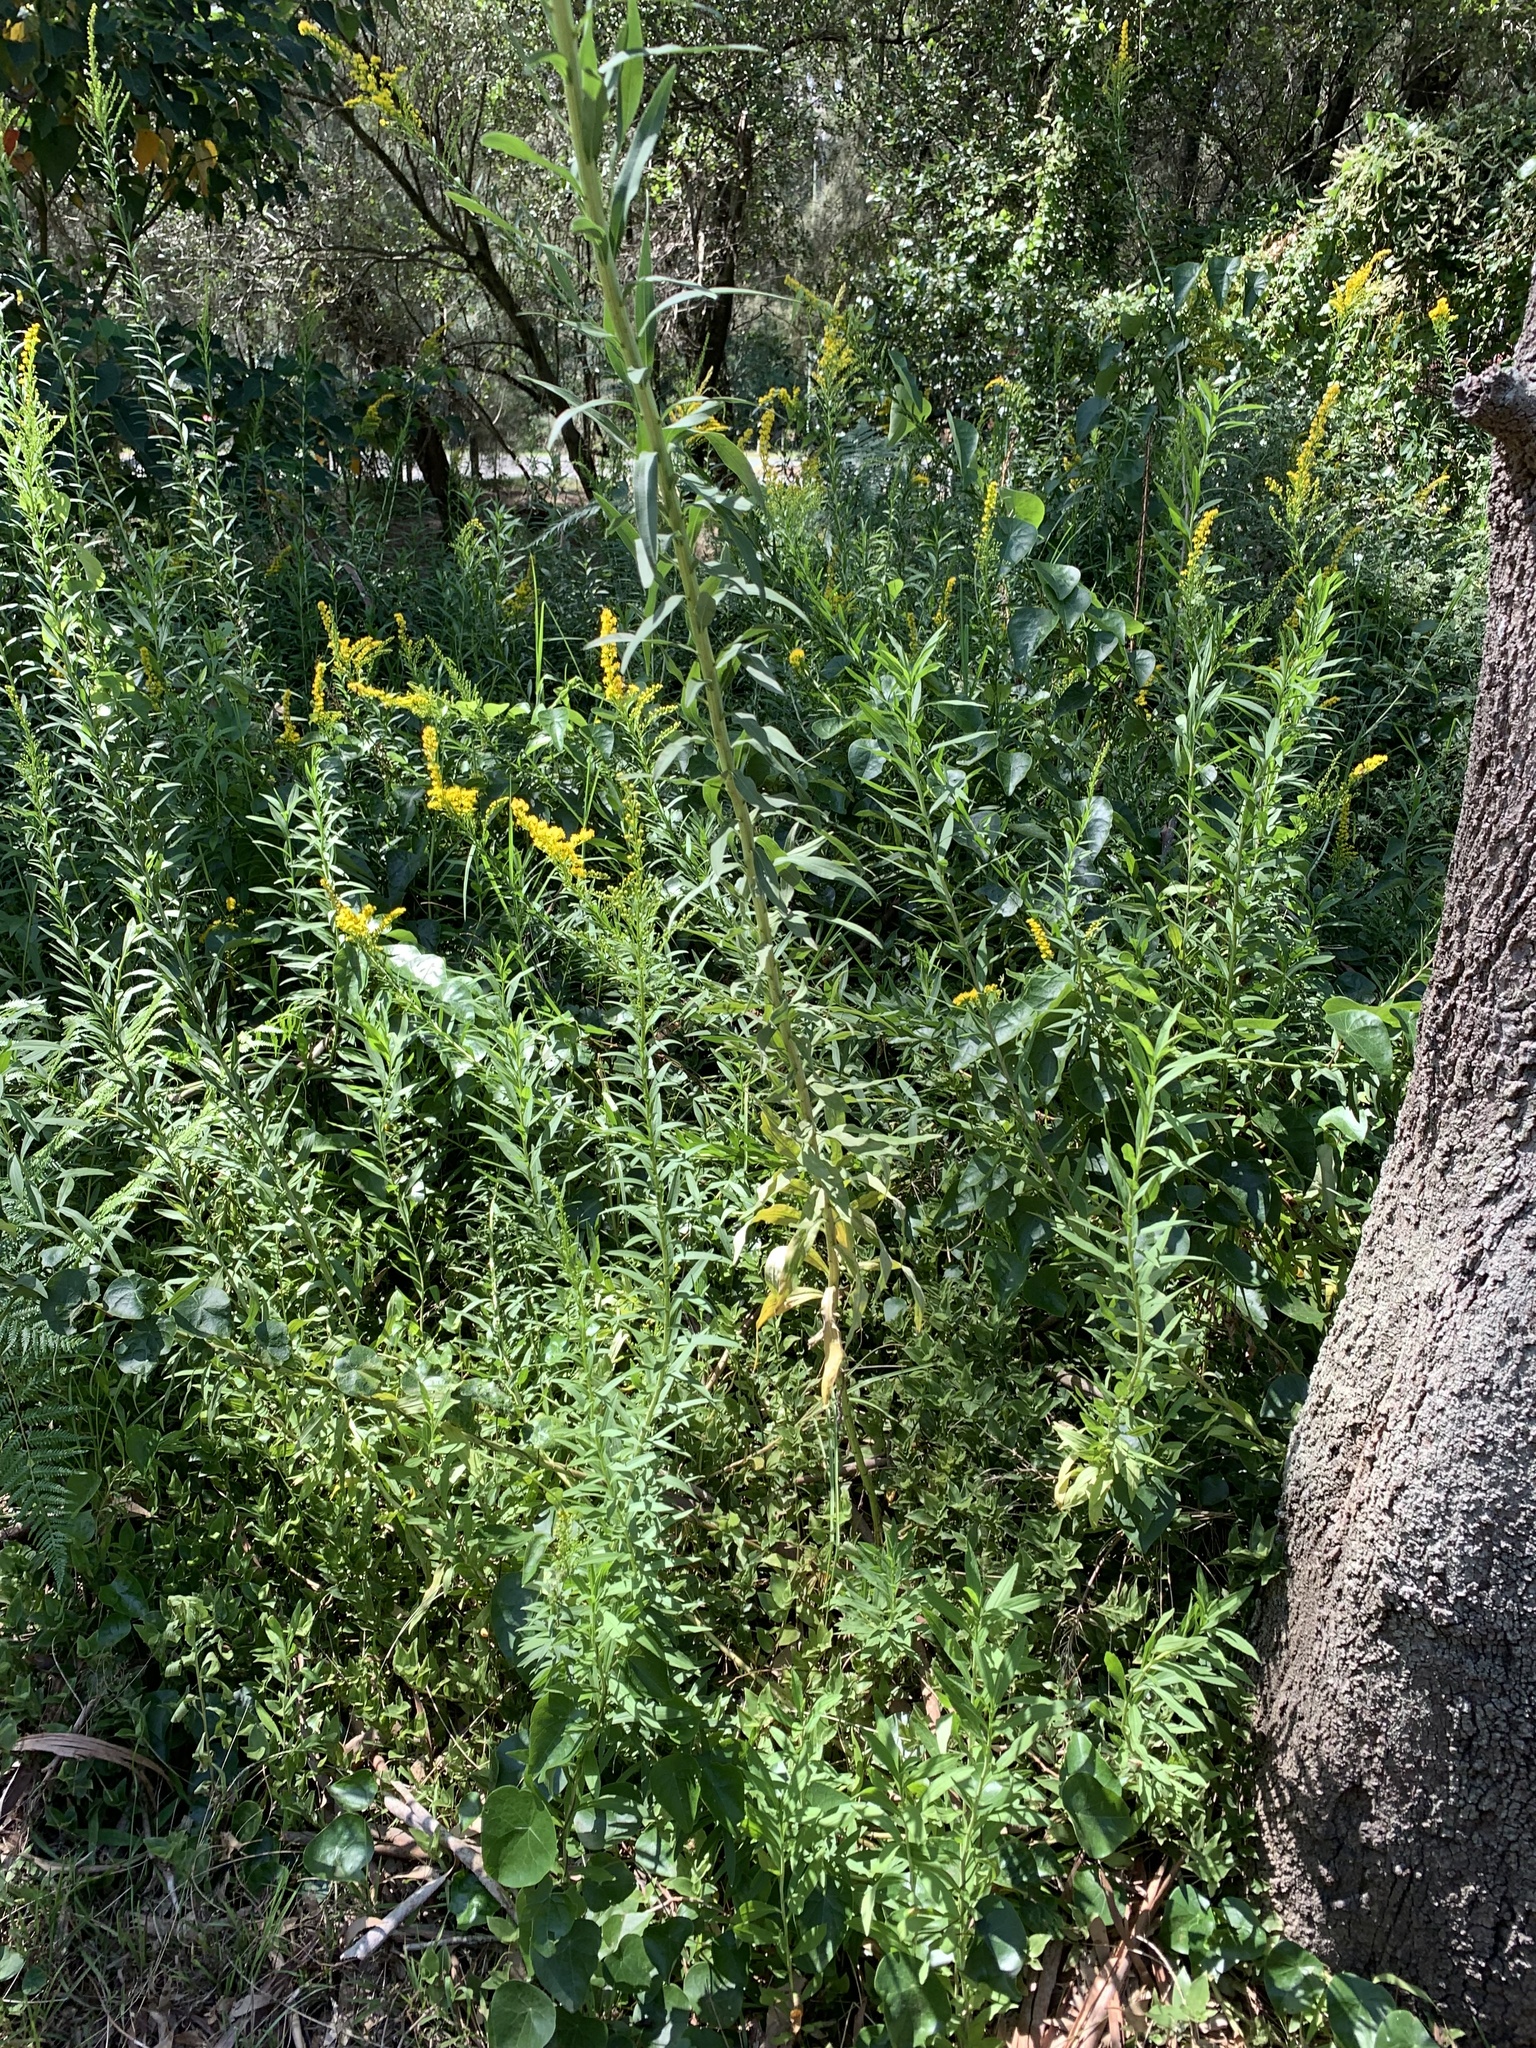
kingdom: Plantae
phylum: Tracheophyta
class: Magnoliopsida
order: Asterales
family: Asteraceae
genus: Solidago
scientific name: Solidago altissima
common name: Late goldenrod
